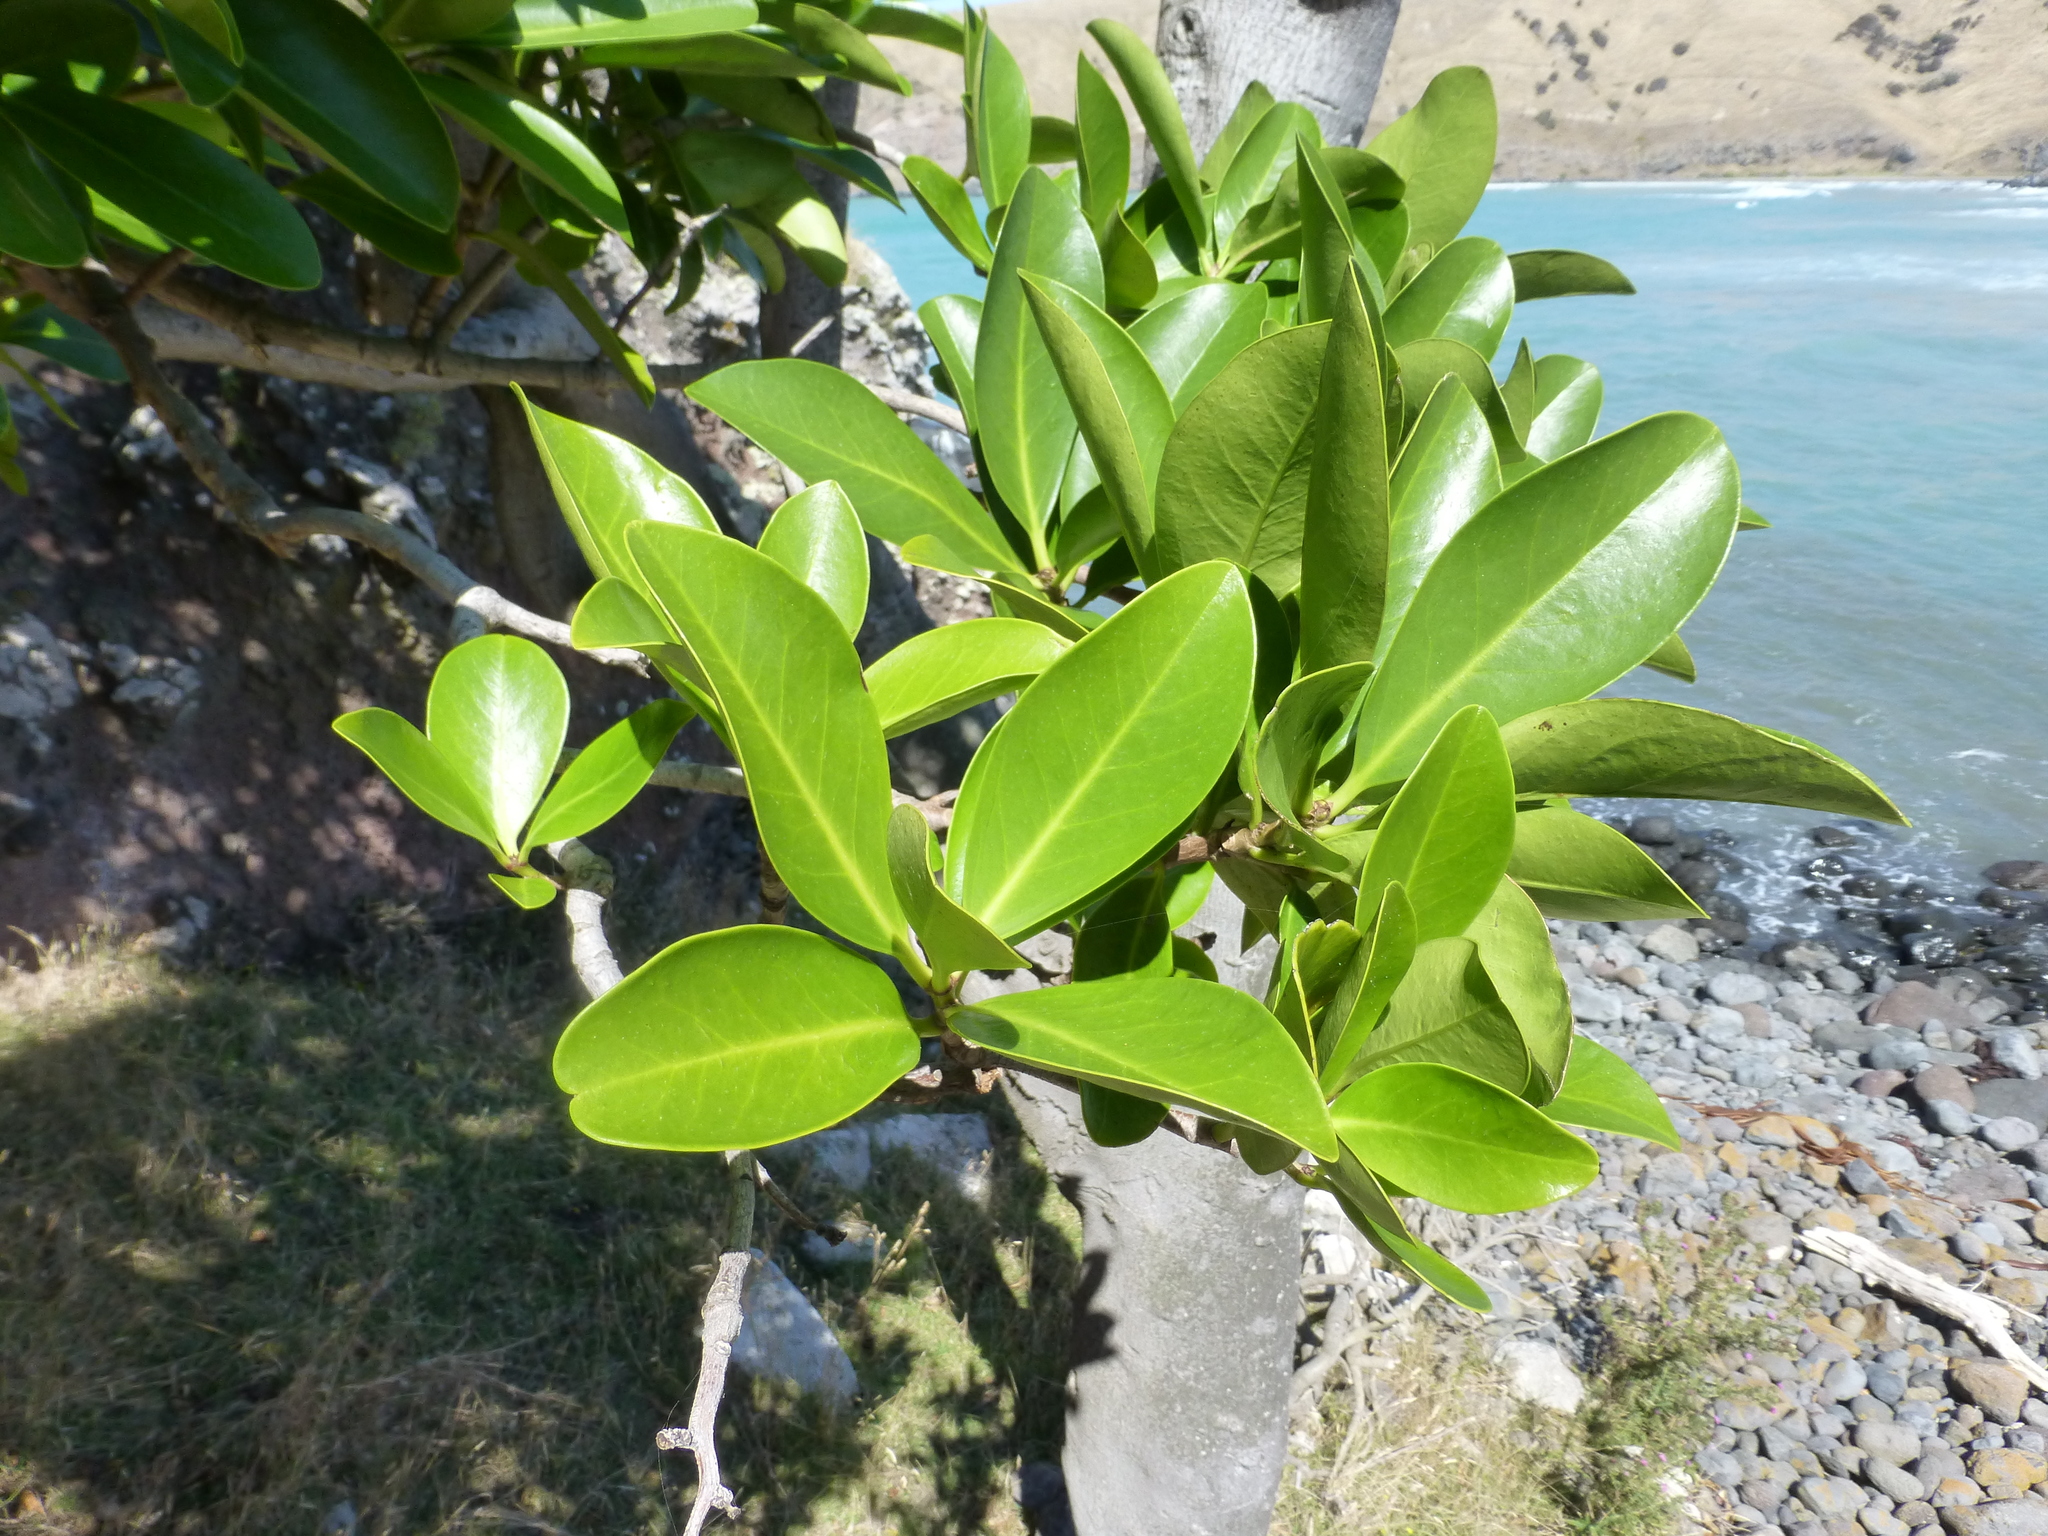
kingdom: Plantae
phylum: Tracheophyta
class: Magnoliopsida
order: Cucurbitales
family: Corynocarpaceae
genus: Corynocarpus
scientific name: Corynocarpus laevigatus
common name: New zealand laurel
